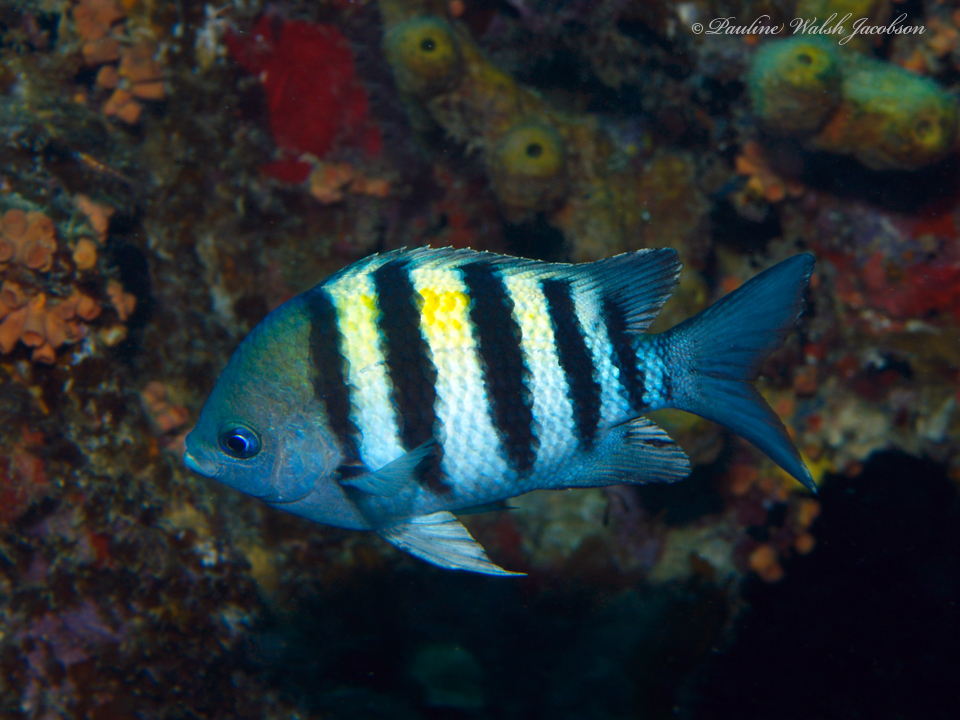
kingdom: Animalia
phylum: Chordata
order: Perciformes
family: Pomacentridae
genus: Abudefduf
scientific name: Abudefduf saxatilis
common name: Sergeant major
